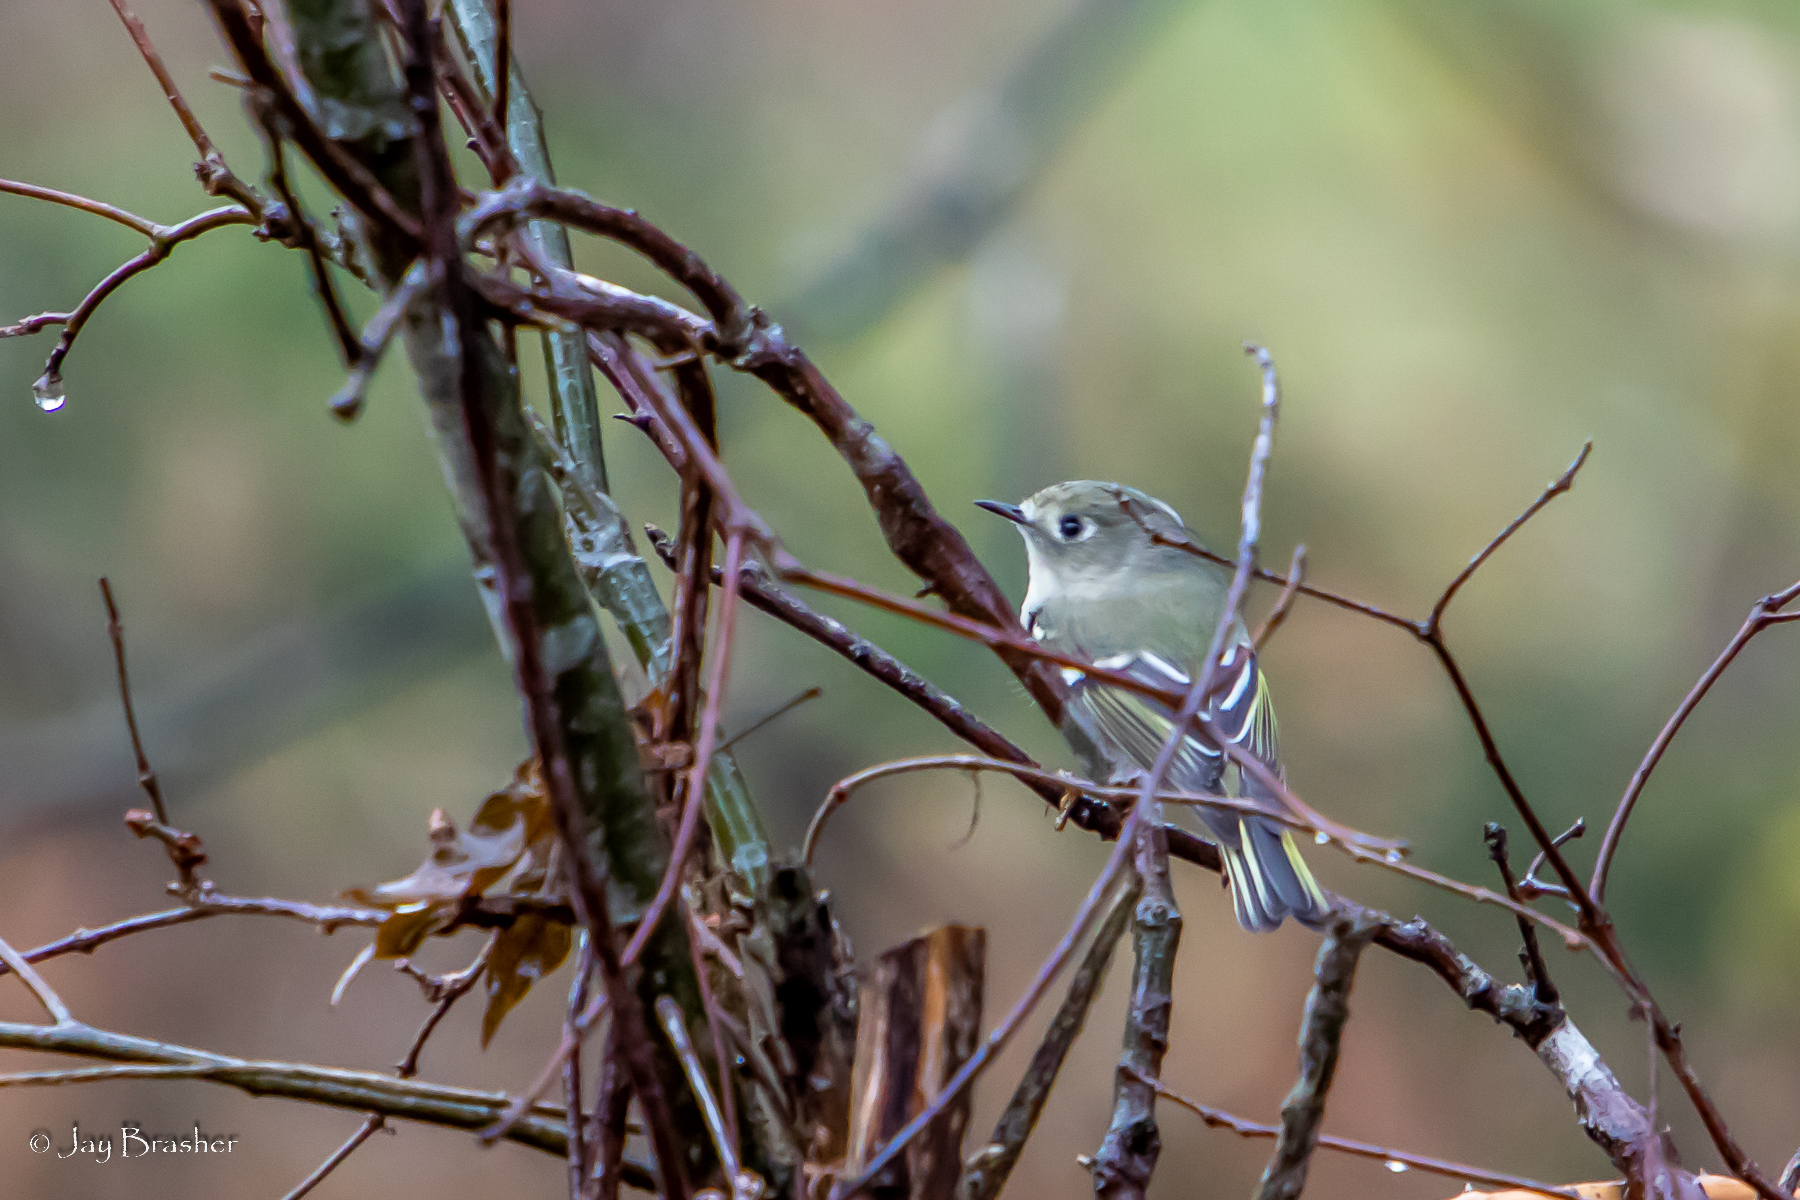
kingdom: Animalia
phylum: Chordata
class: Aves
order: Passeriformes
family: Regulidae
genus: Regulus
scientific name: Regulus calendula
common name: Ruby-crowned kinglet
